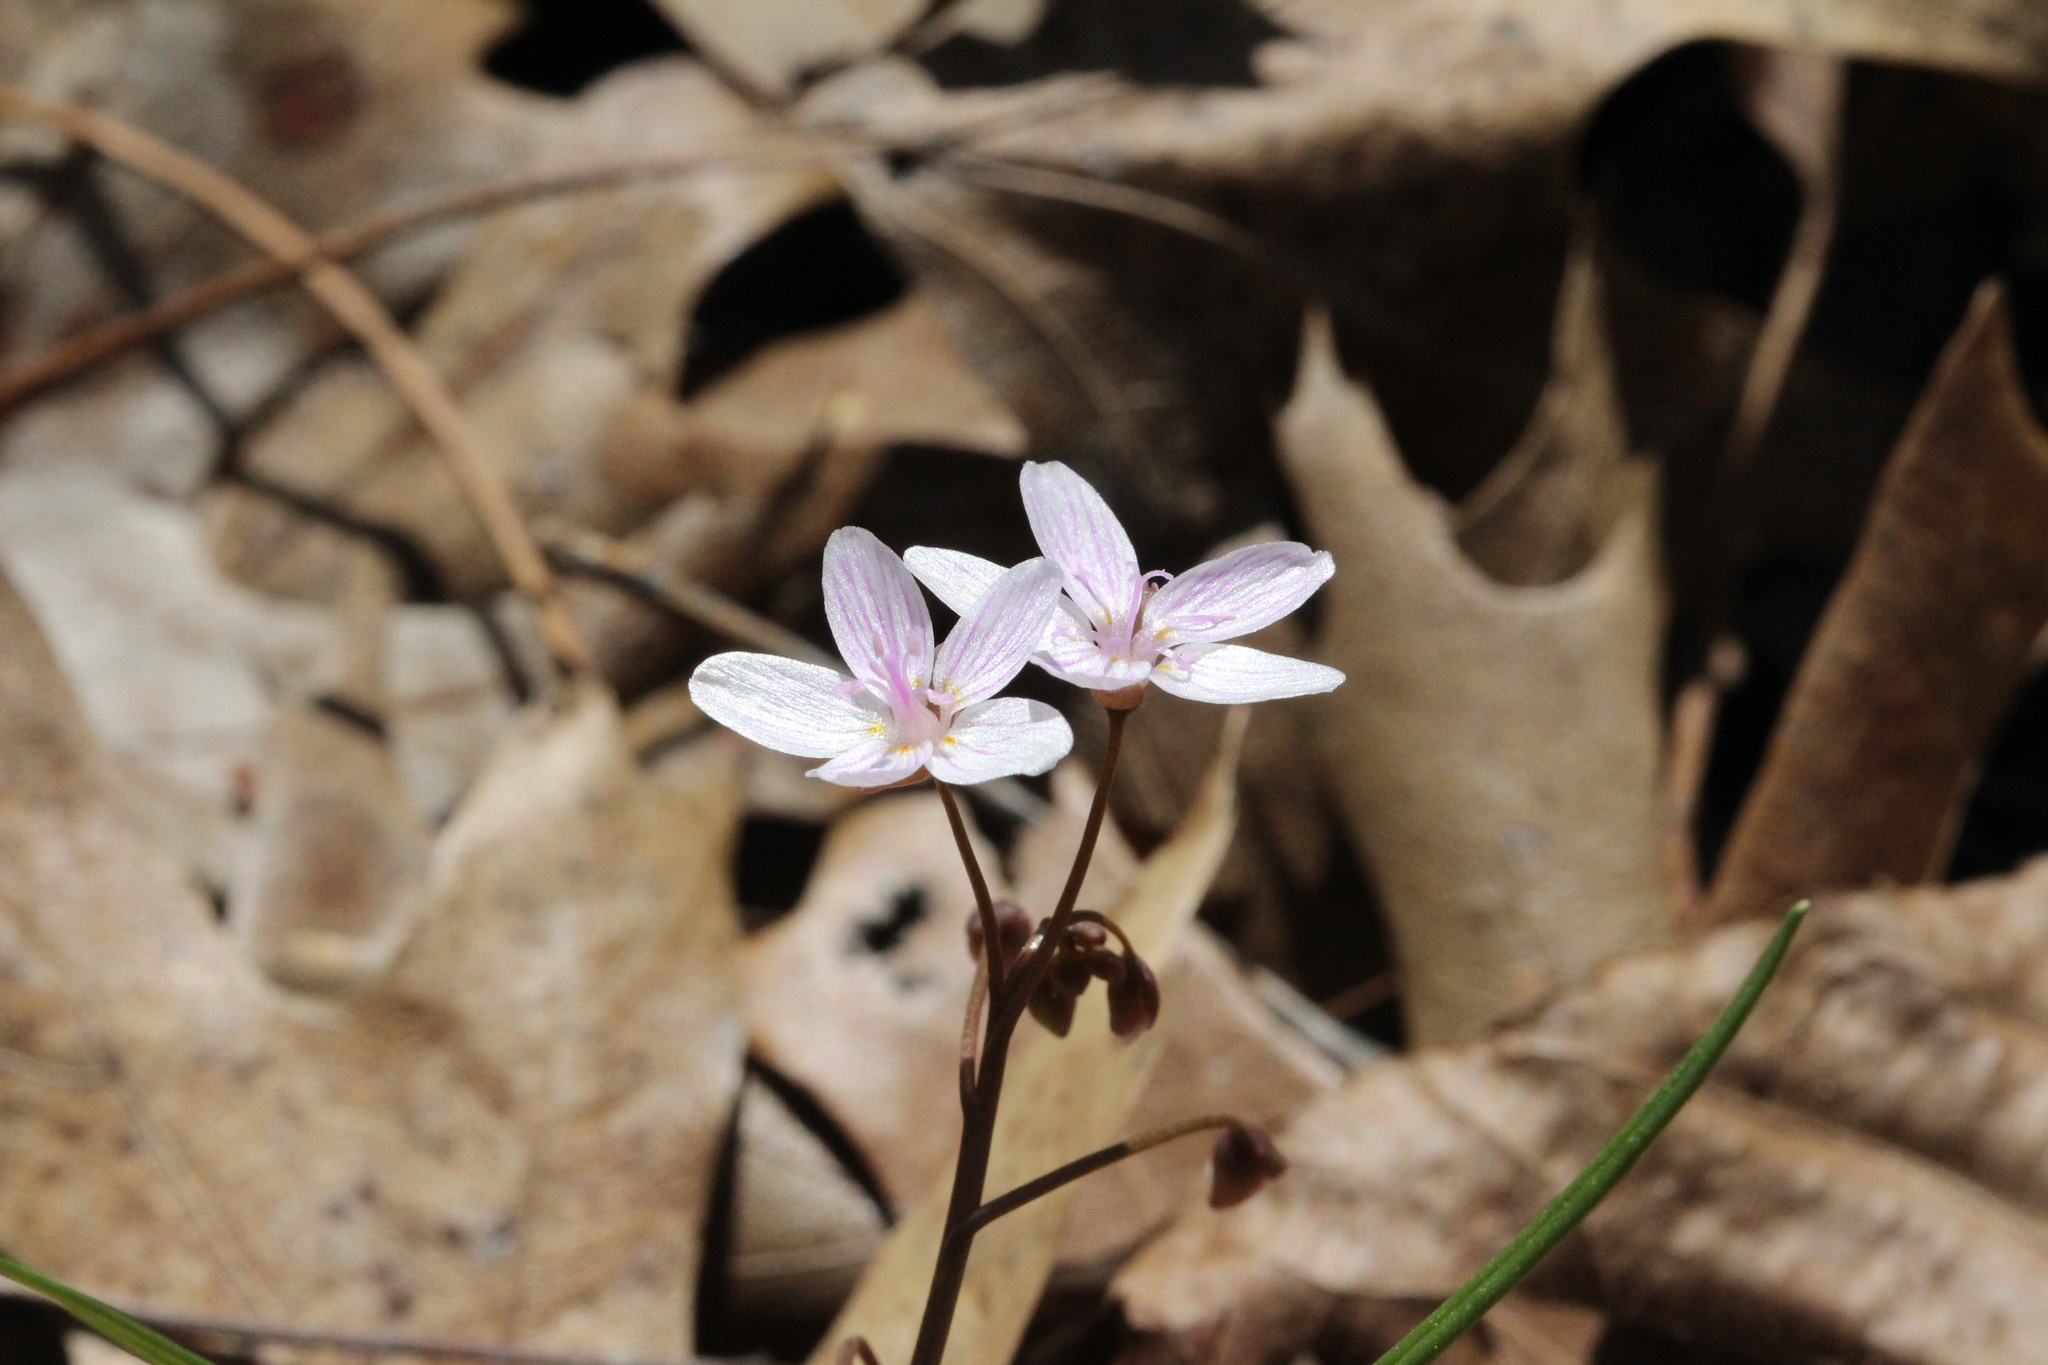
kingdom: Plantae
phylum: Tracheophyta
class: Magnoliopsida
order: Caryophyllales
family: Montiaceae
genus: Claytonia
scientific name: Claytonia virginica
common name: Virginia springbeauty
